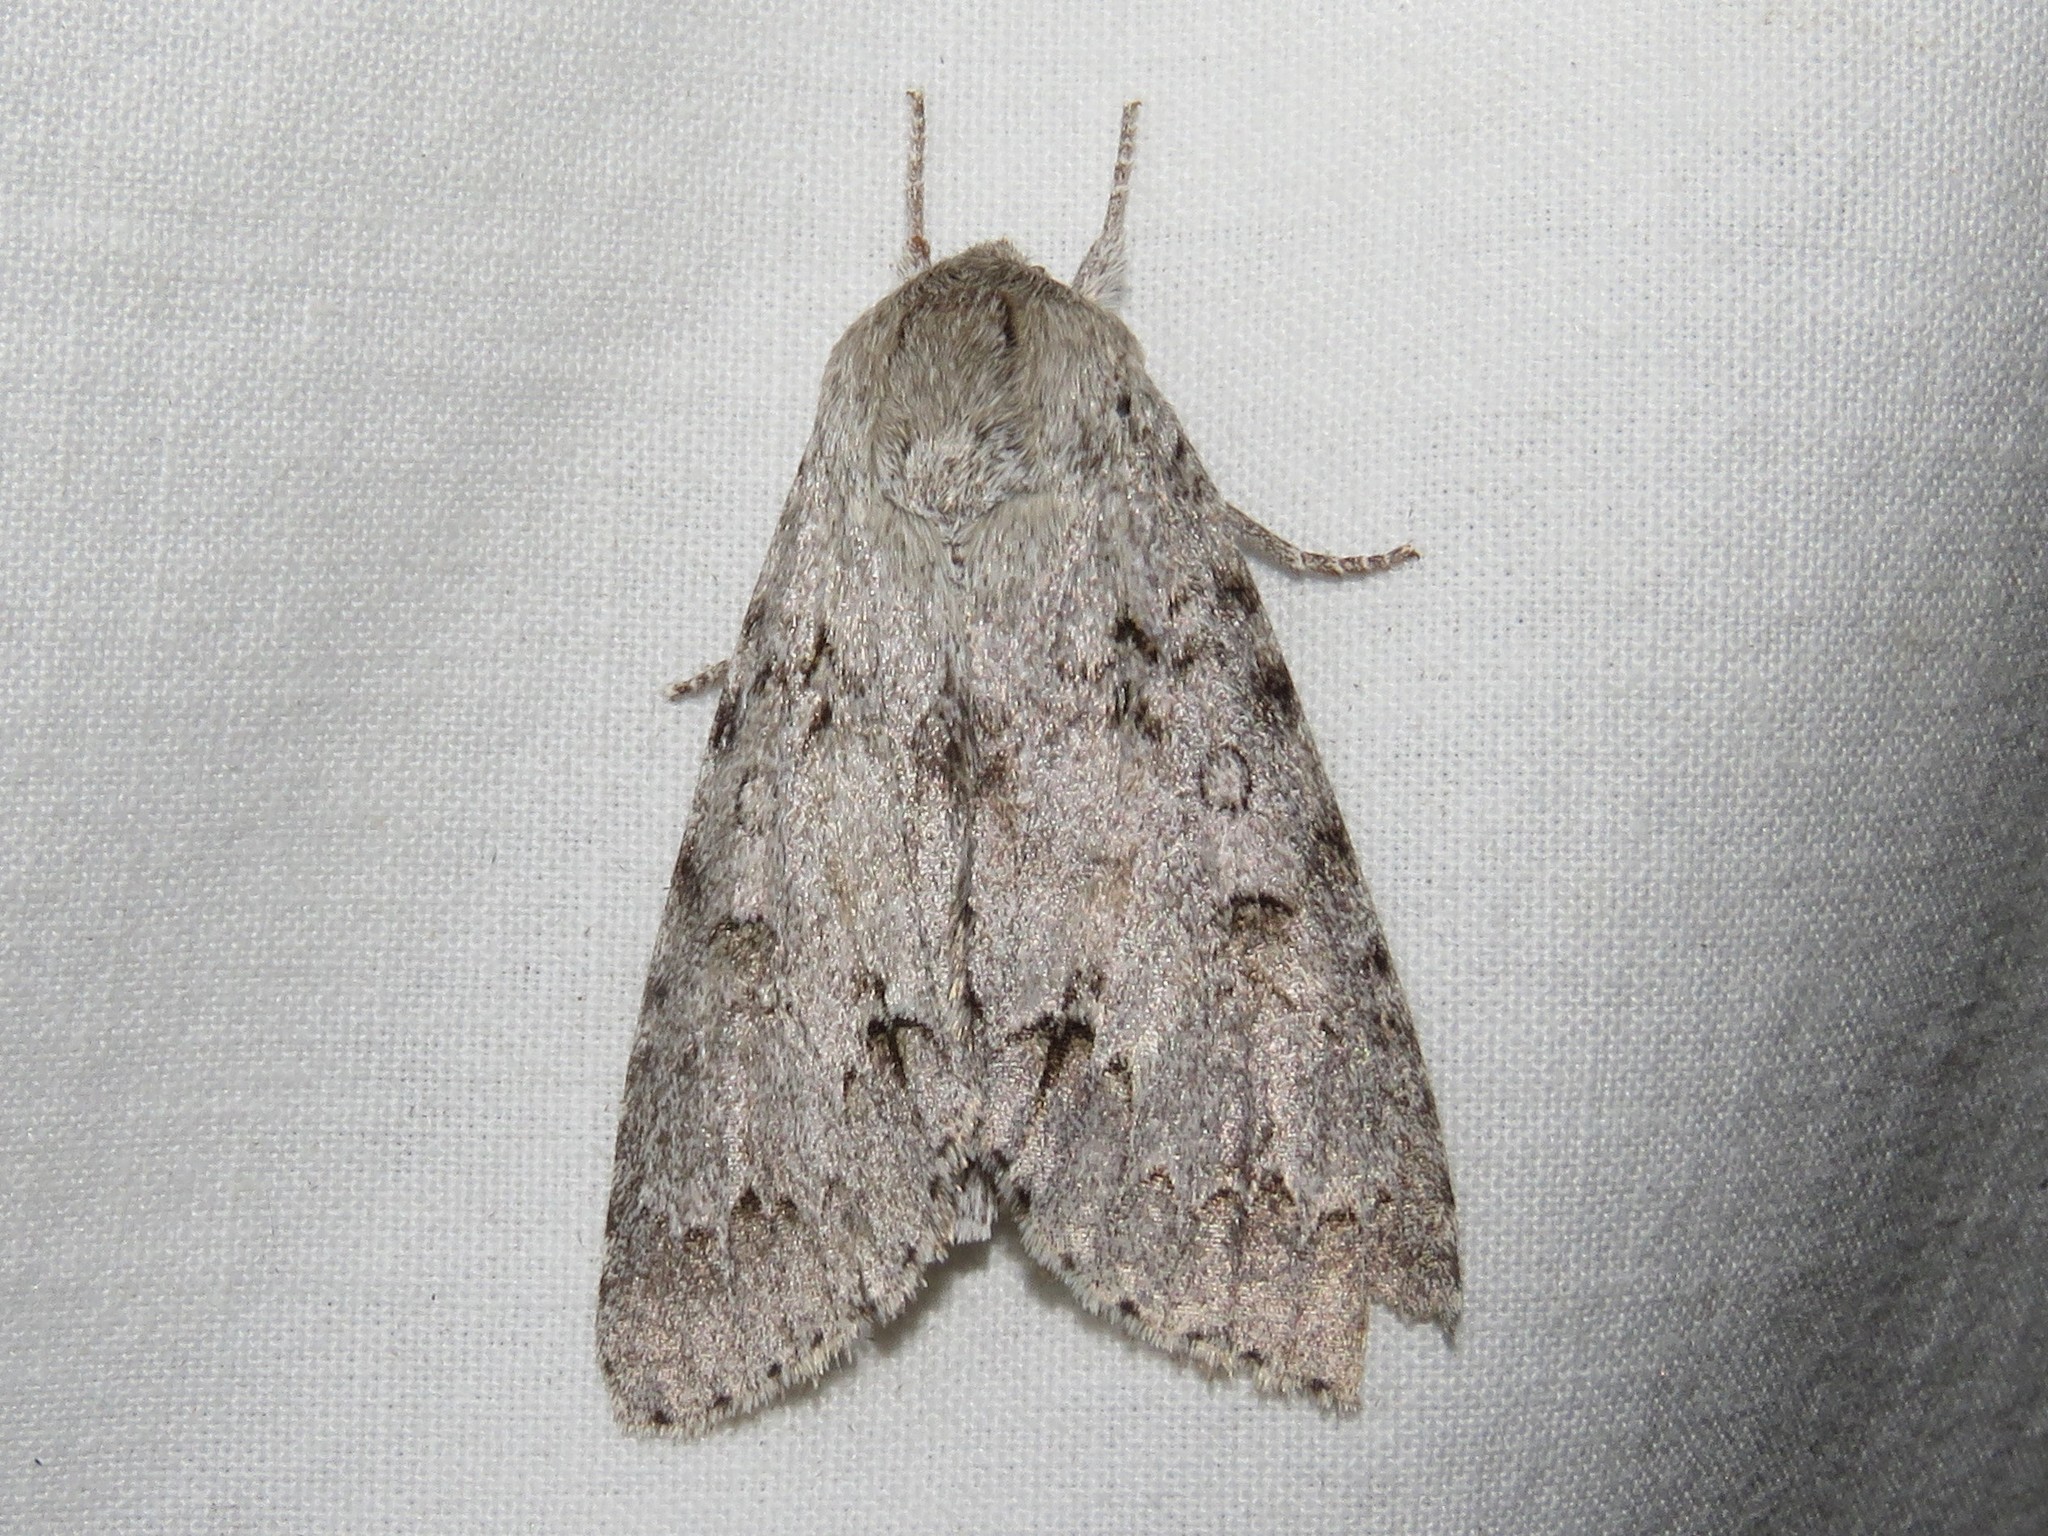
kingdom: Animalia
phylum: Arthropoda
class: Insecta
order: Lepidoptera
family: Noctuidae
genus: Acronicta
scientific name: Acronicta insita
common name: Large gray dagger
